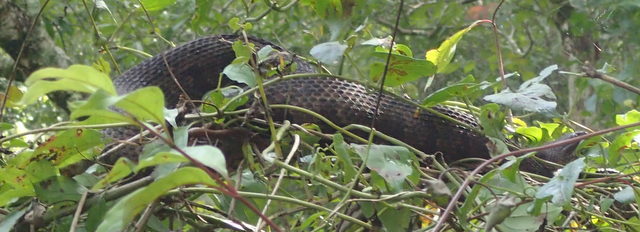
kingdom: Animalia
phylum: Chordata
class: Squamata
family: Colubridae
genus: Nerodia
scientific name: Nerodia taxispilota
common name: Brown water snake
